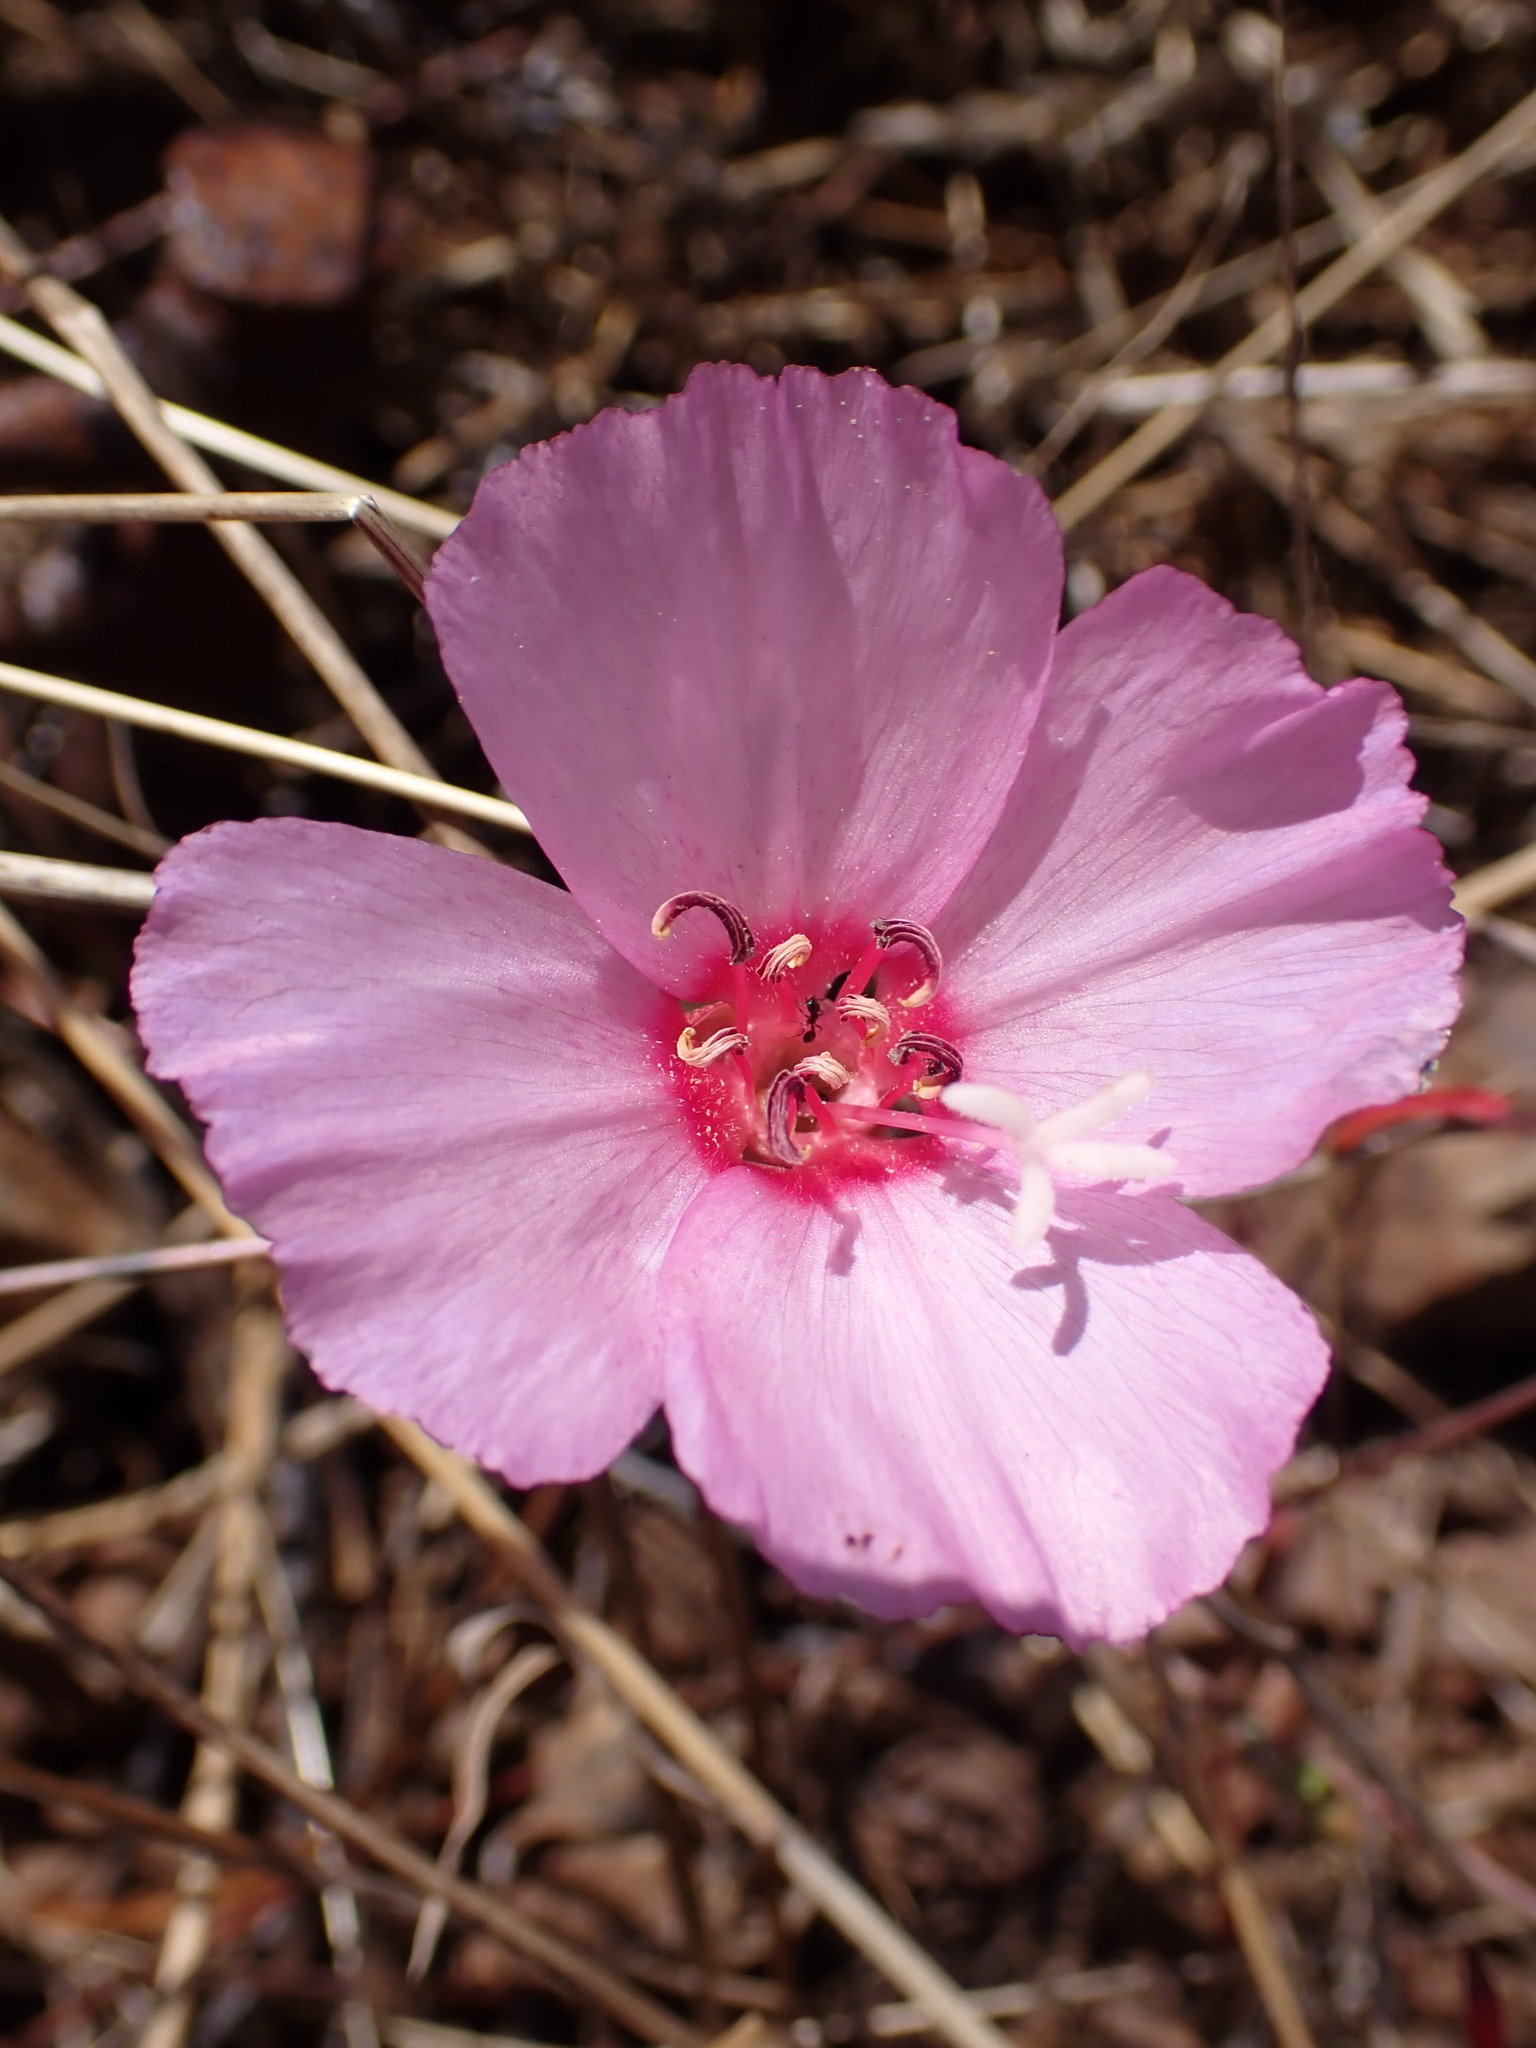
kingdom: Plantae
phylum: Tracheophyta
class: Magnoliopsida
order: Myrtales
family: Onagraceae
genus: Clarkia
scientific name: Clarkia rubicunda
